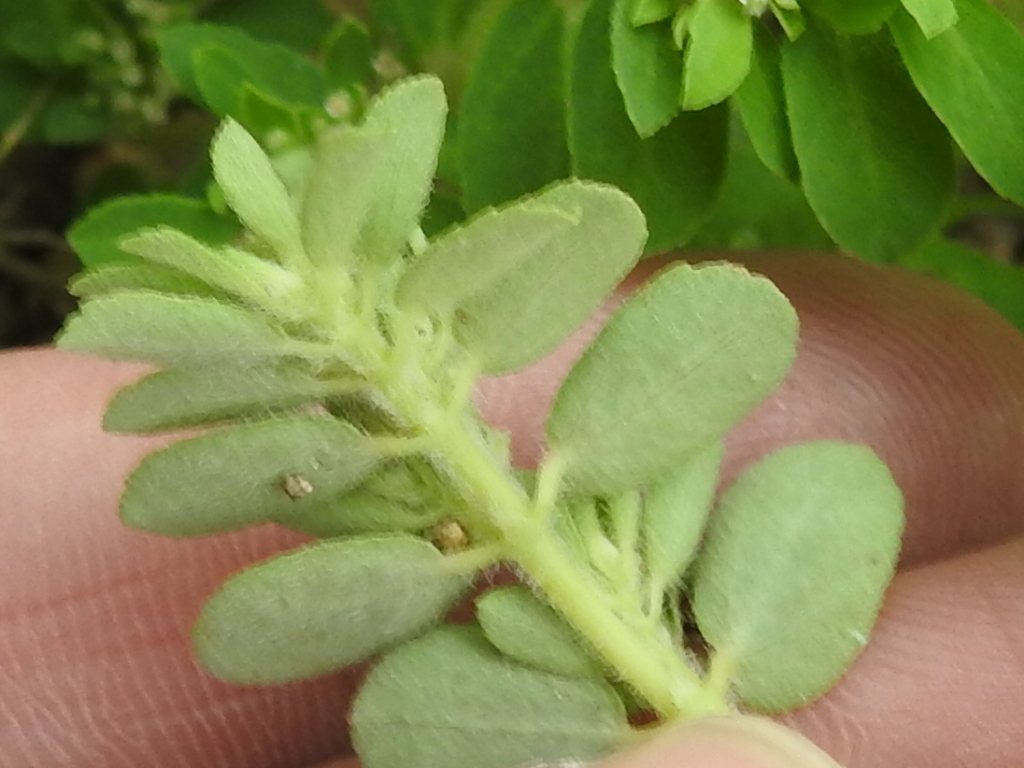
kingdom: Plantae
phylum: Tracheophyta
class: Magnoliopsida
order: Malpighiales
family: Euphorbiaceae
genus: Euphorbia
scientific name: Euphorbia stictospora
